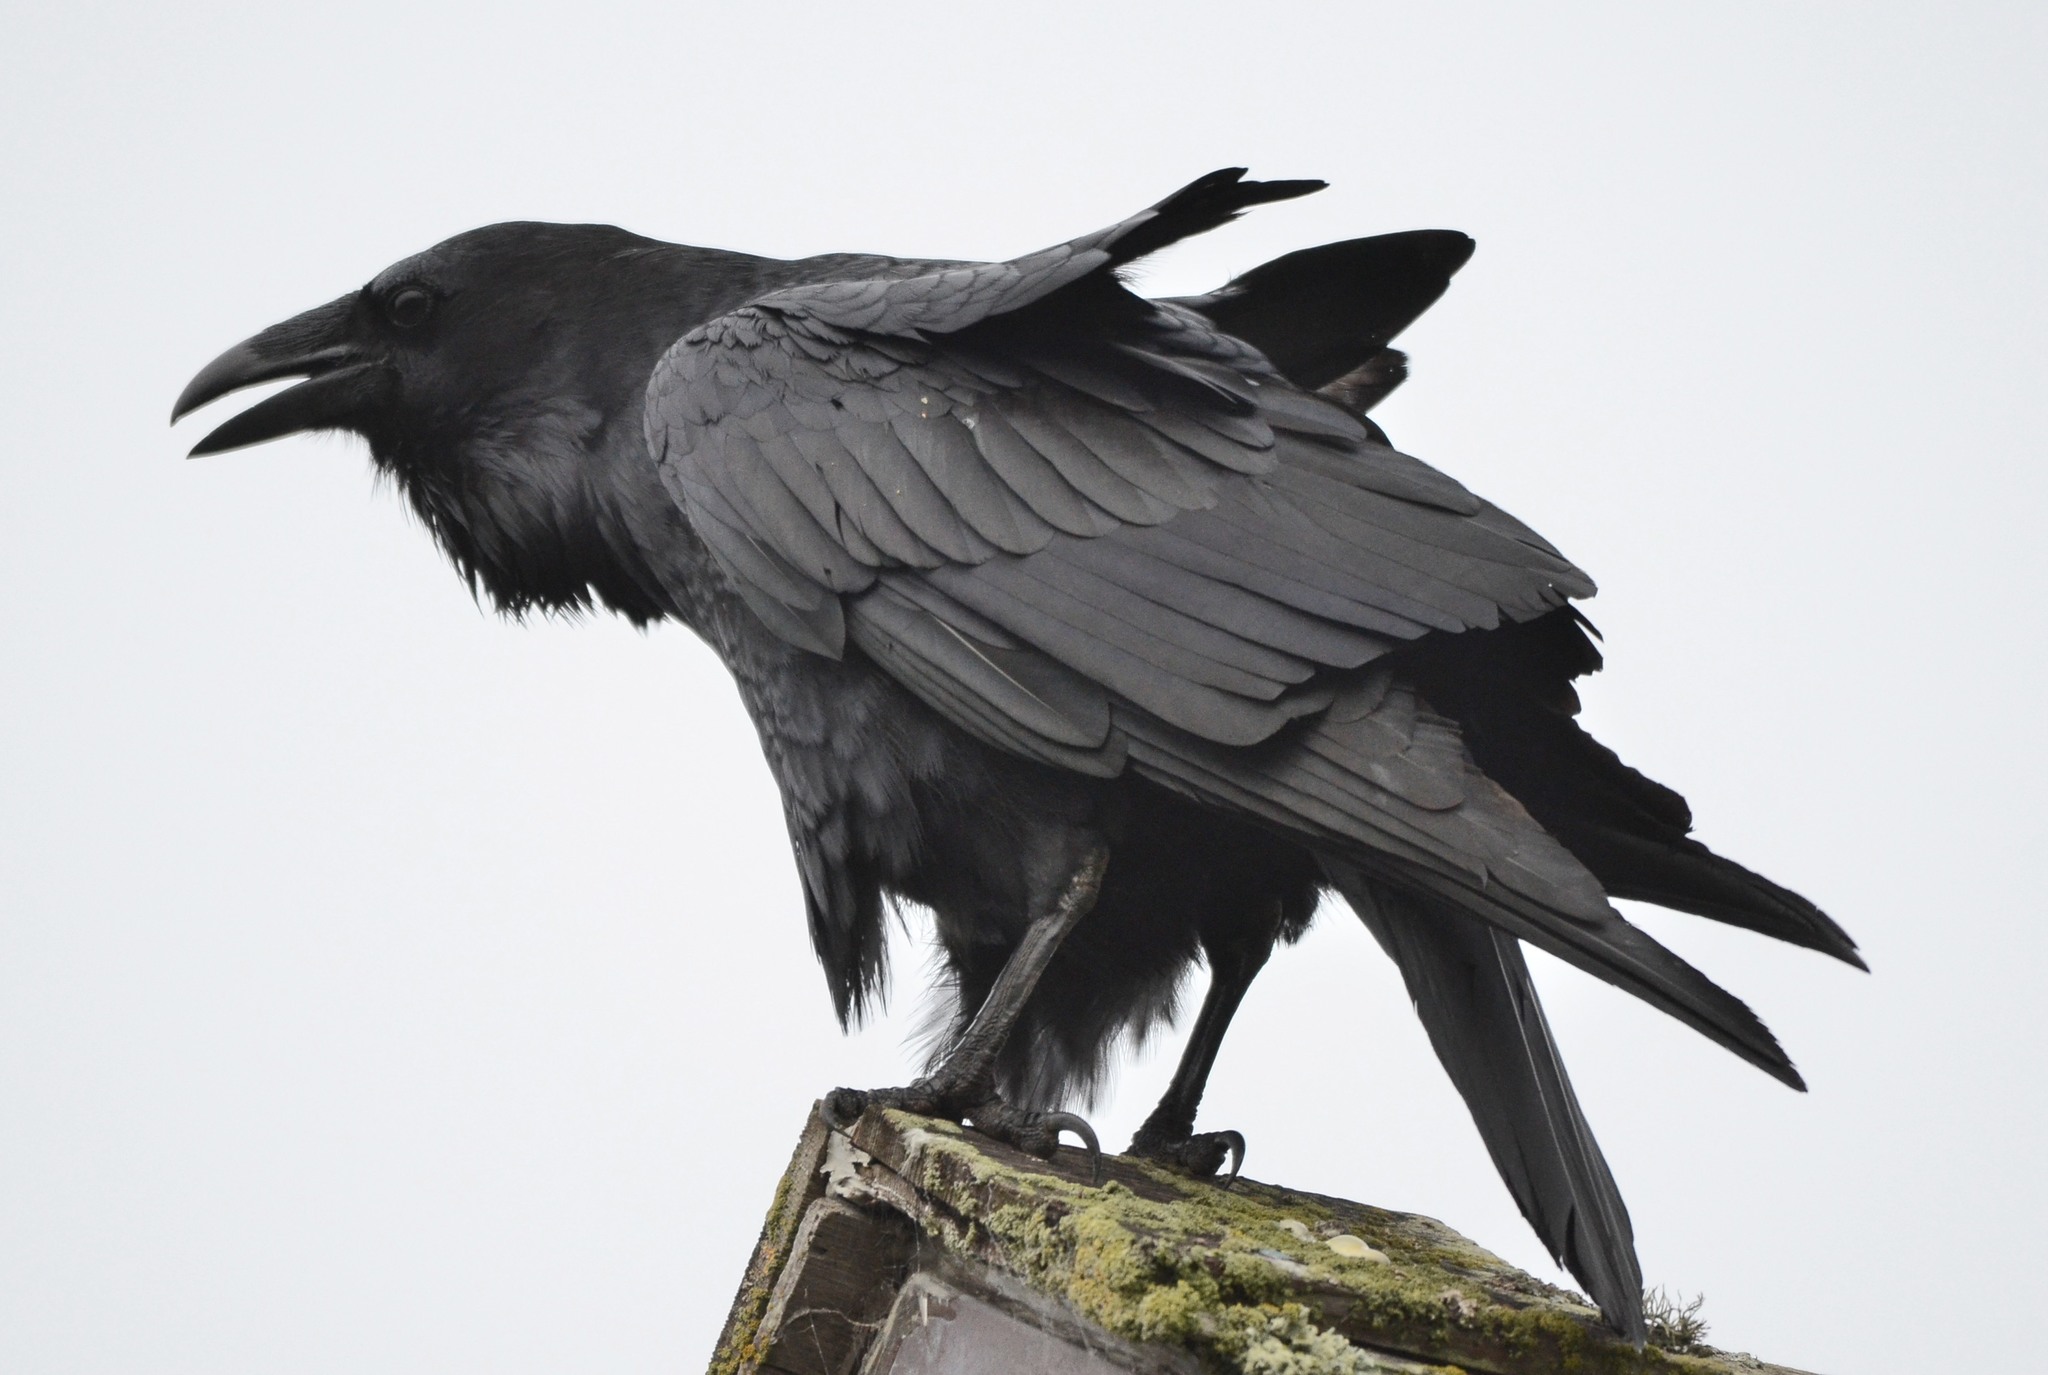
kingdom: Animalia
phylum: Chordata
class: Aves
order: Passeriformes
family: Corvidae
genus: Corvus
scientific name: Corvus corax
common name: Common raven
